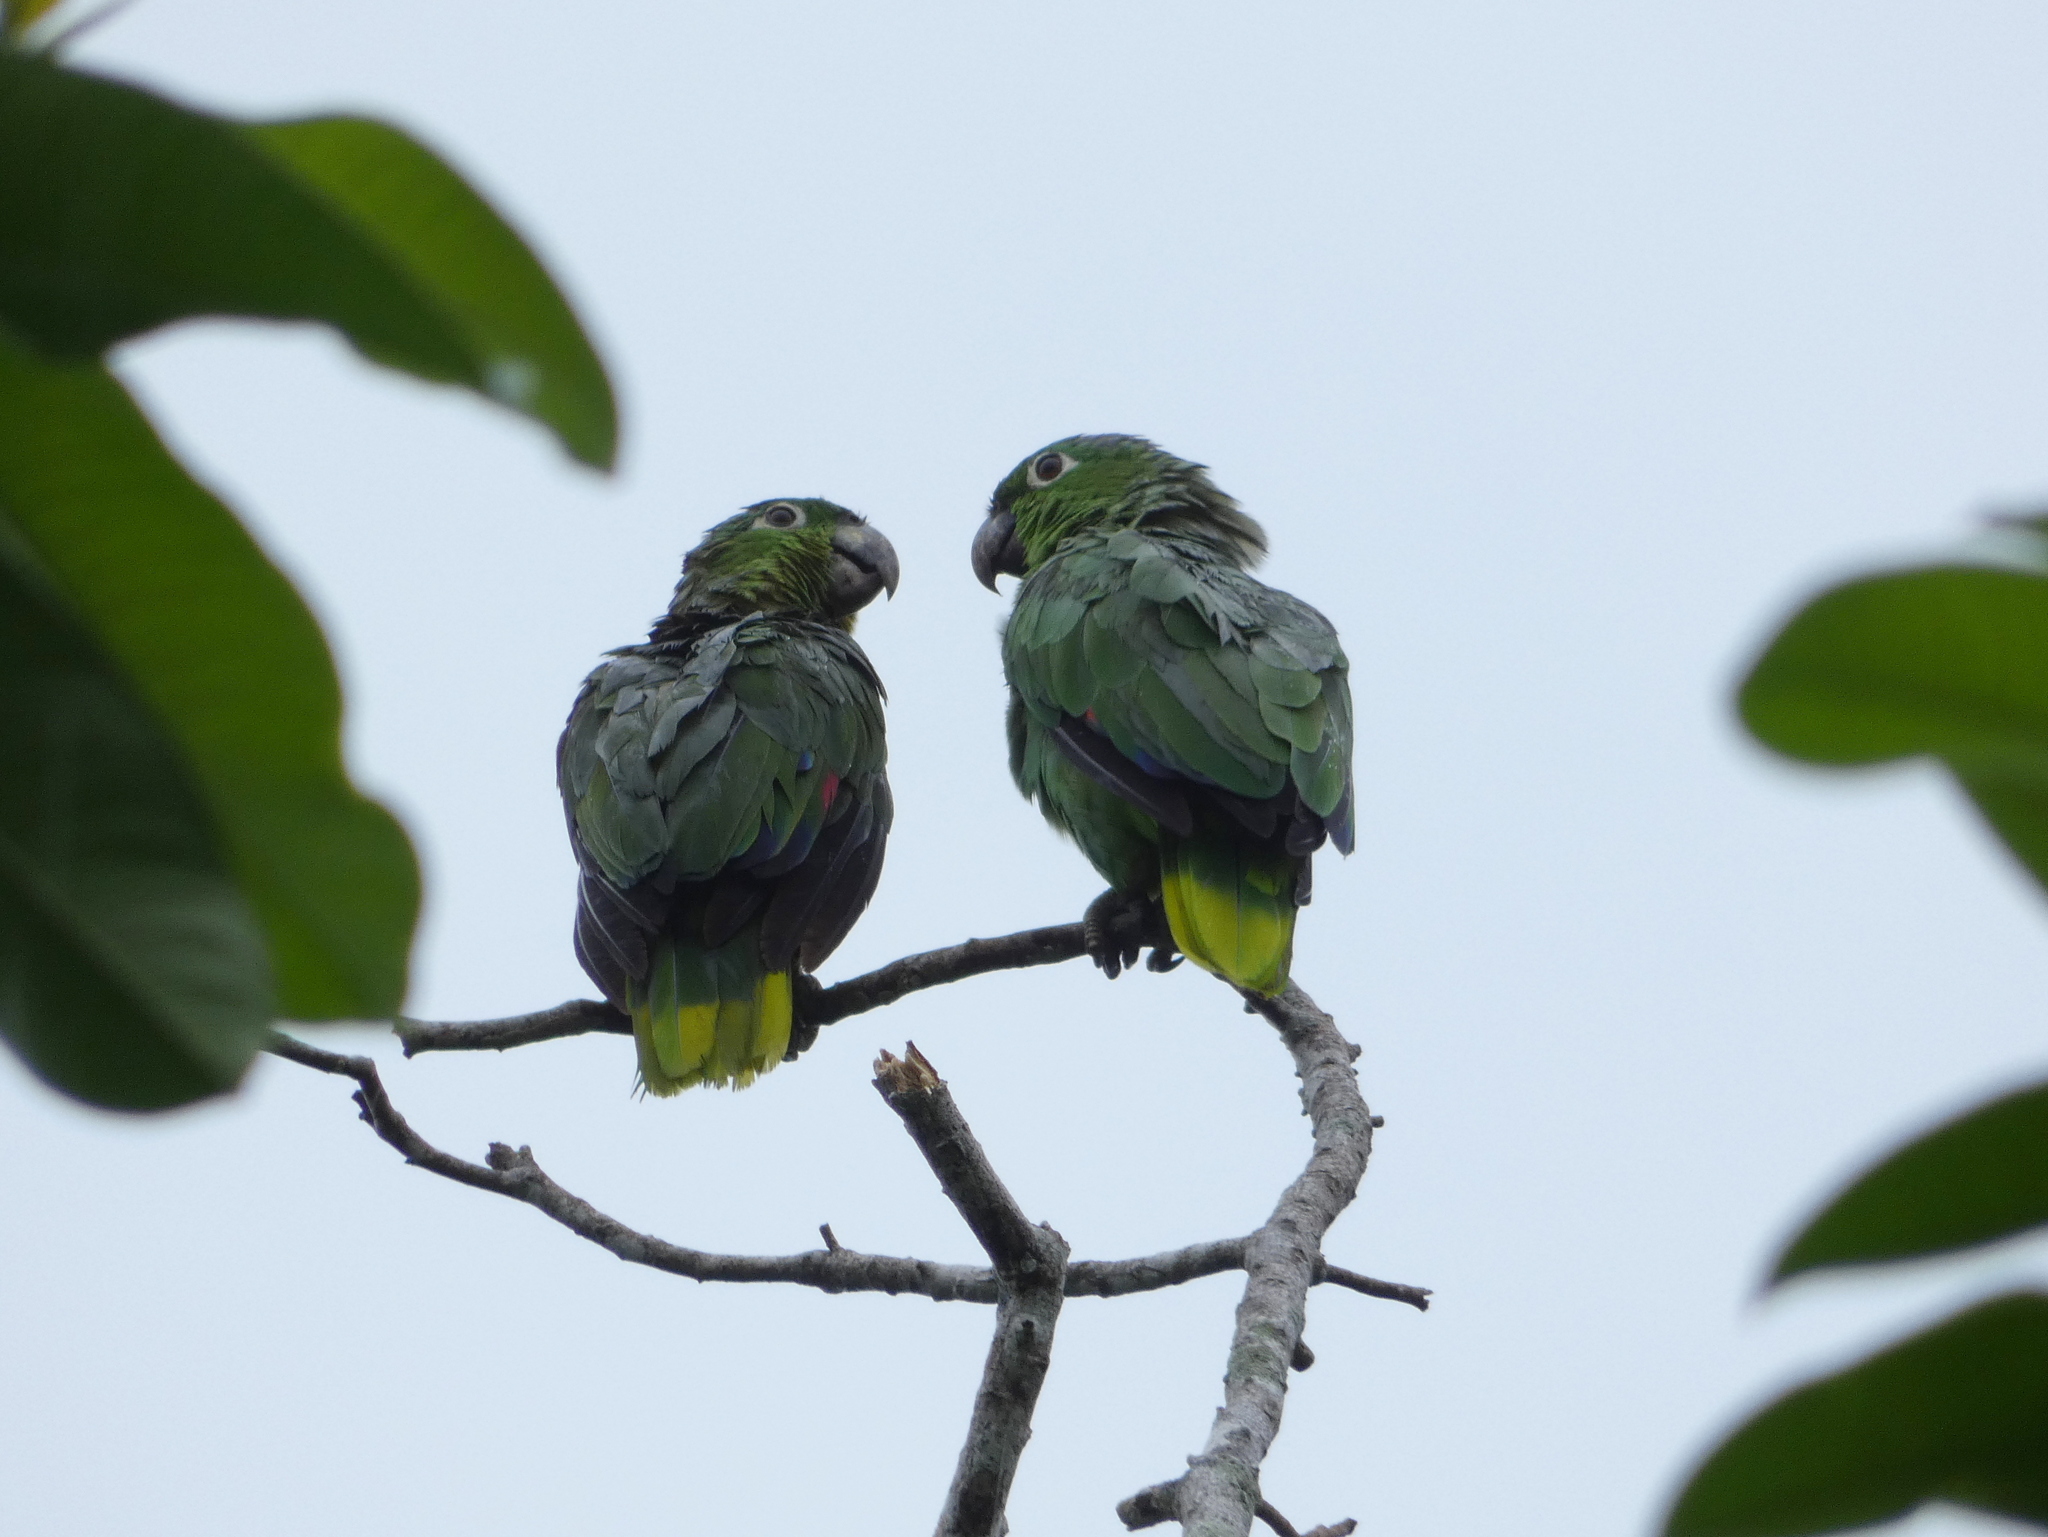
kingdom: Animalia
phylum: Chordata
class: Aves
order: Psittaciformes
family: Psittacidae
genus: Amazona
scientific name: Amazona farinosa
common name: Mealy parrot
